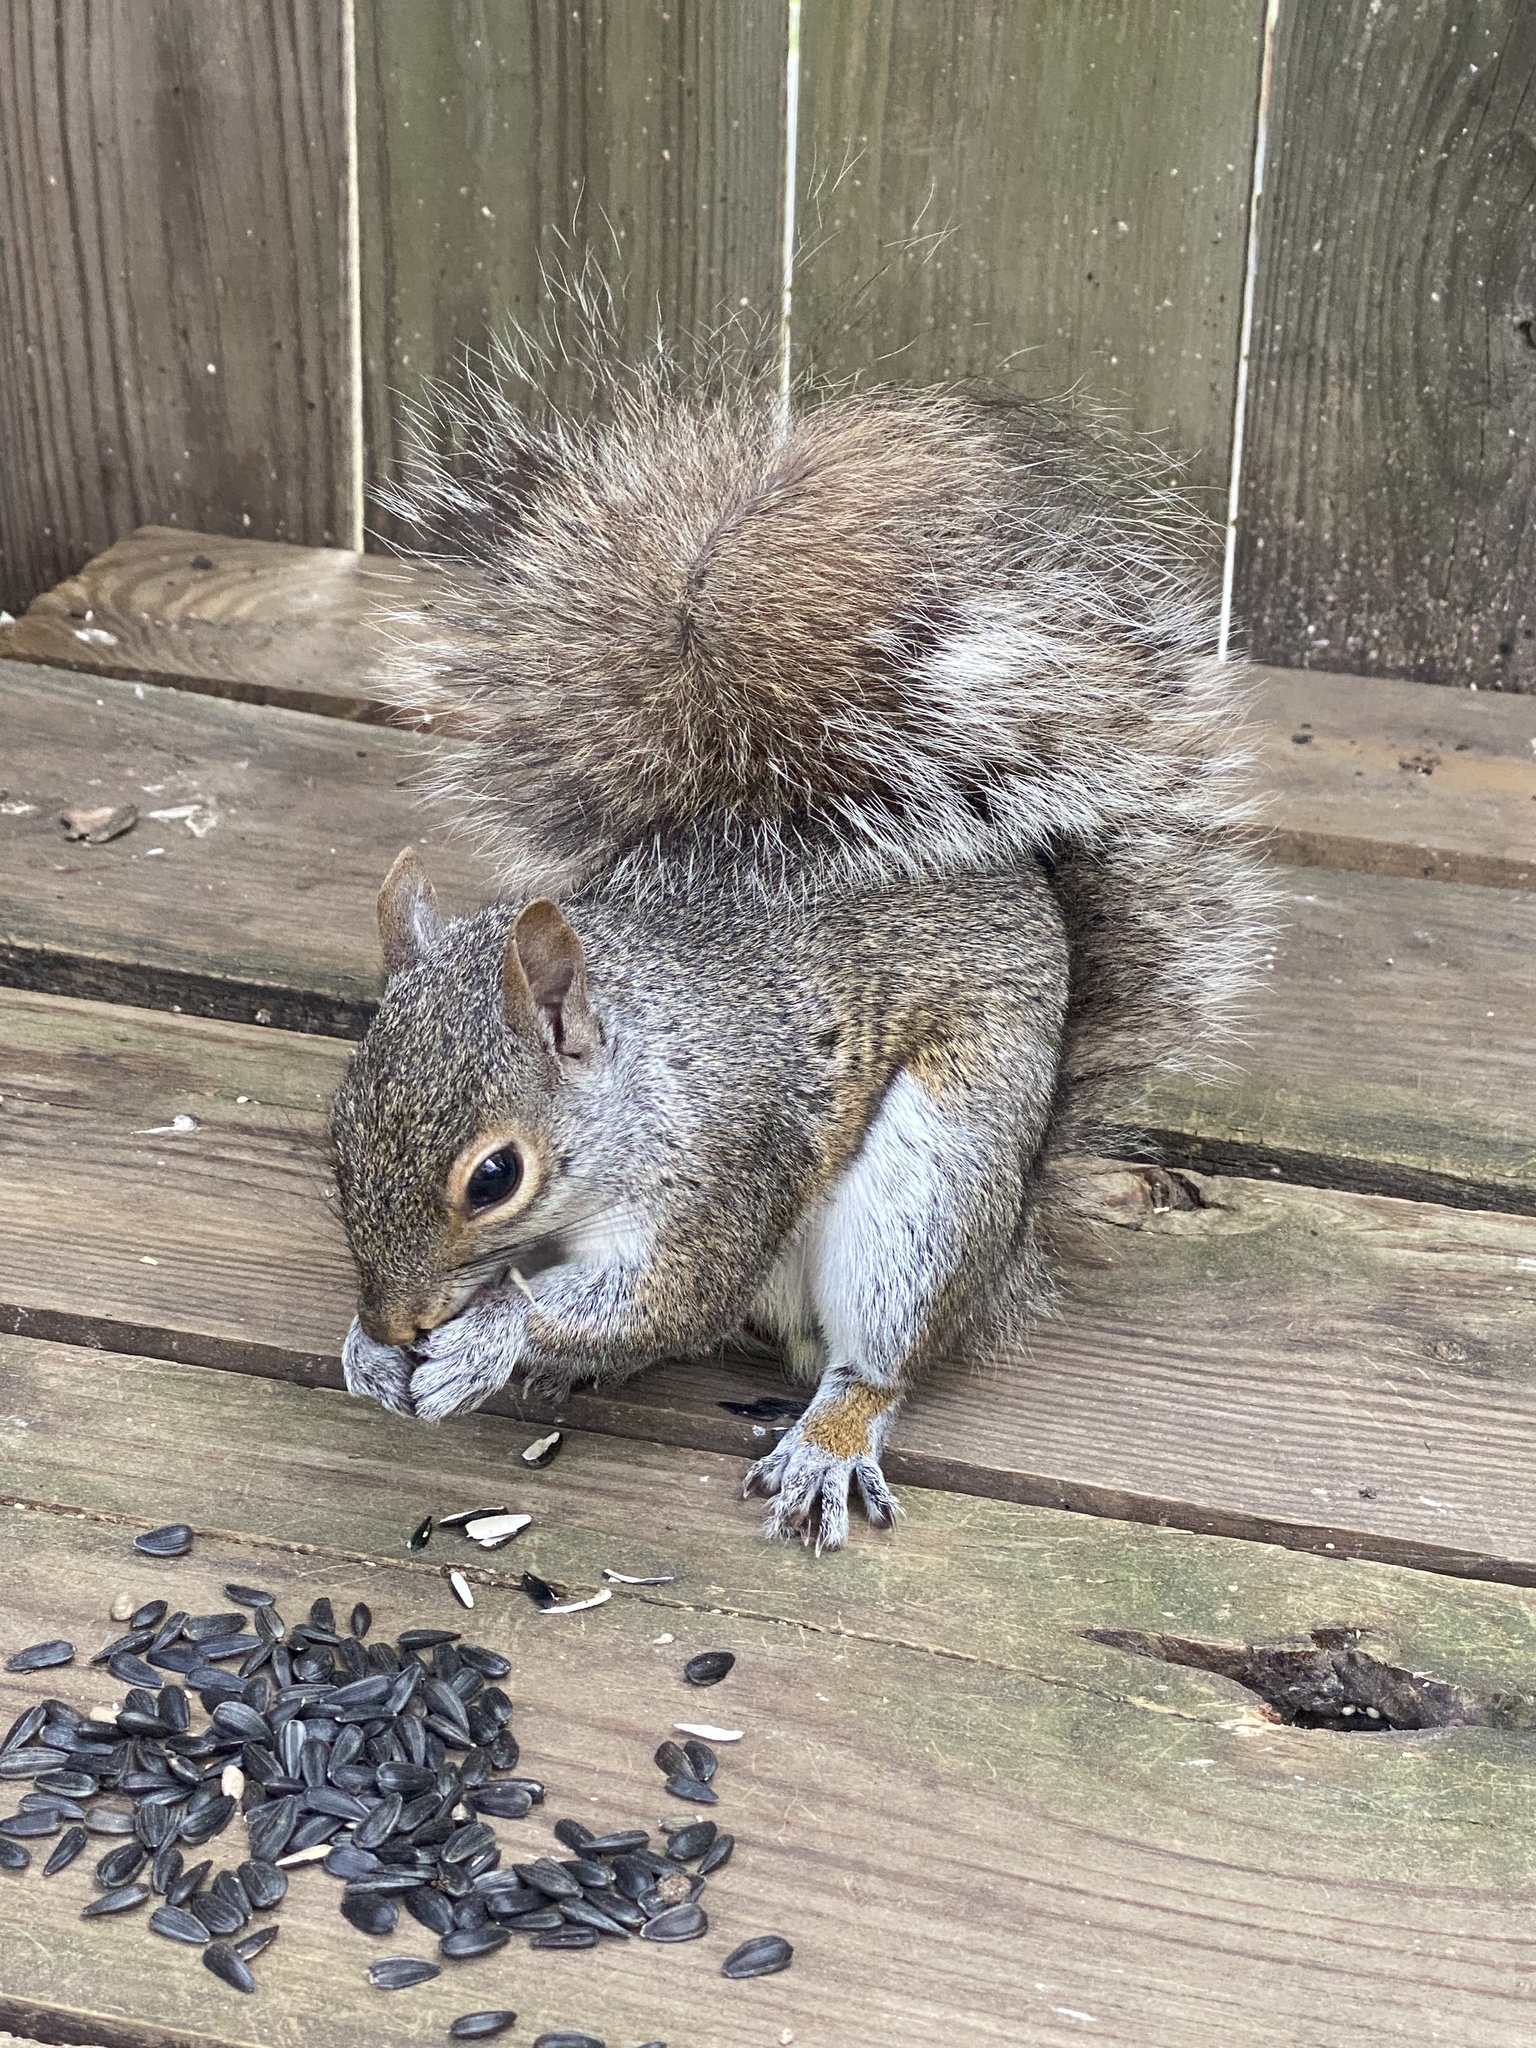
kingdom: Animalia
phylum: Chordata
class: Mammalia
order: Rodentia
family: Sciuridae
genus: Sciurus
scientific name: Sciurus carolinensis
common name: Eastern gray squirrel
